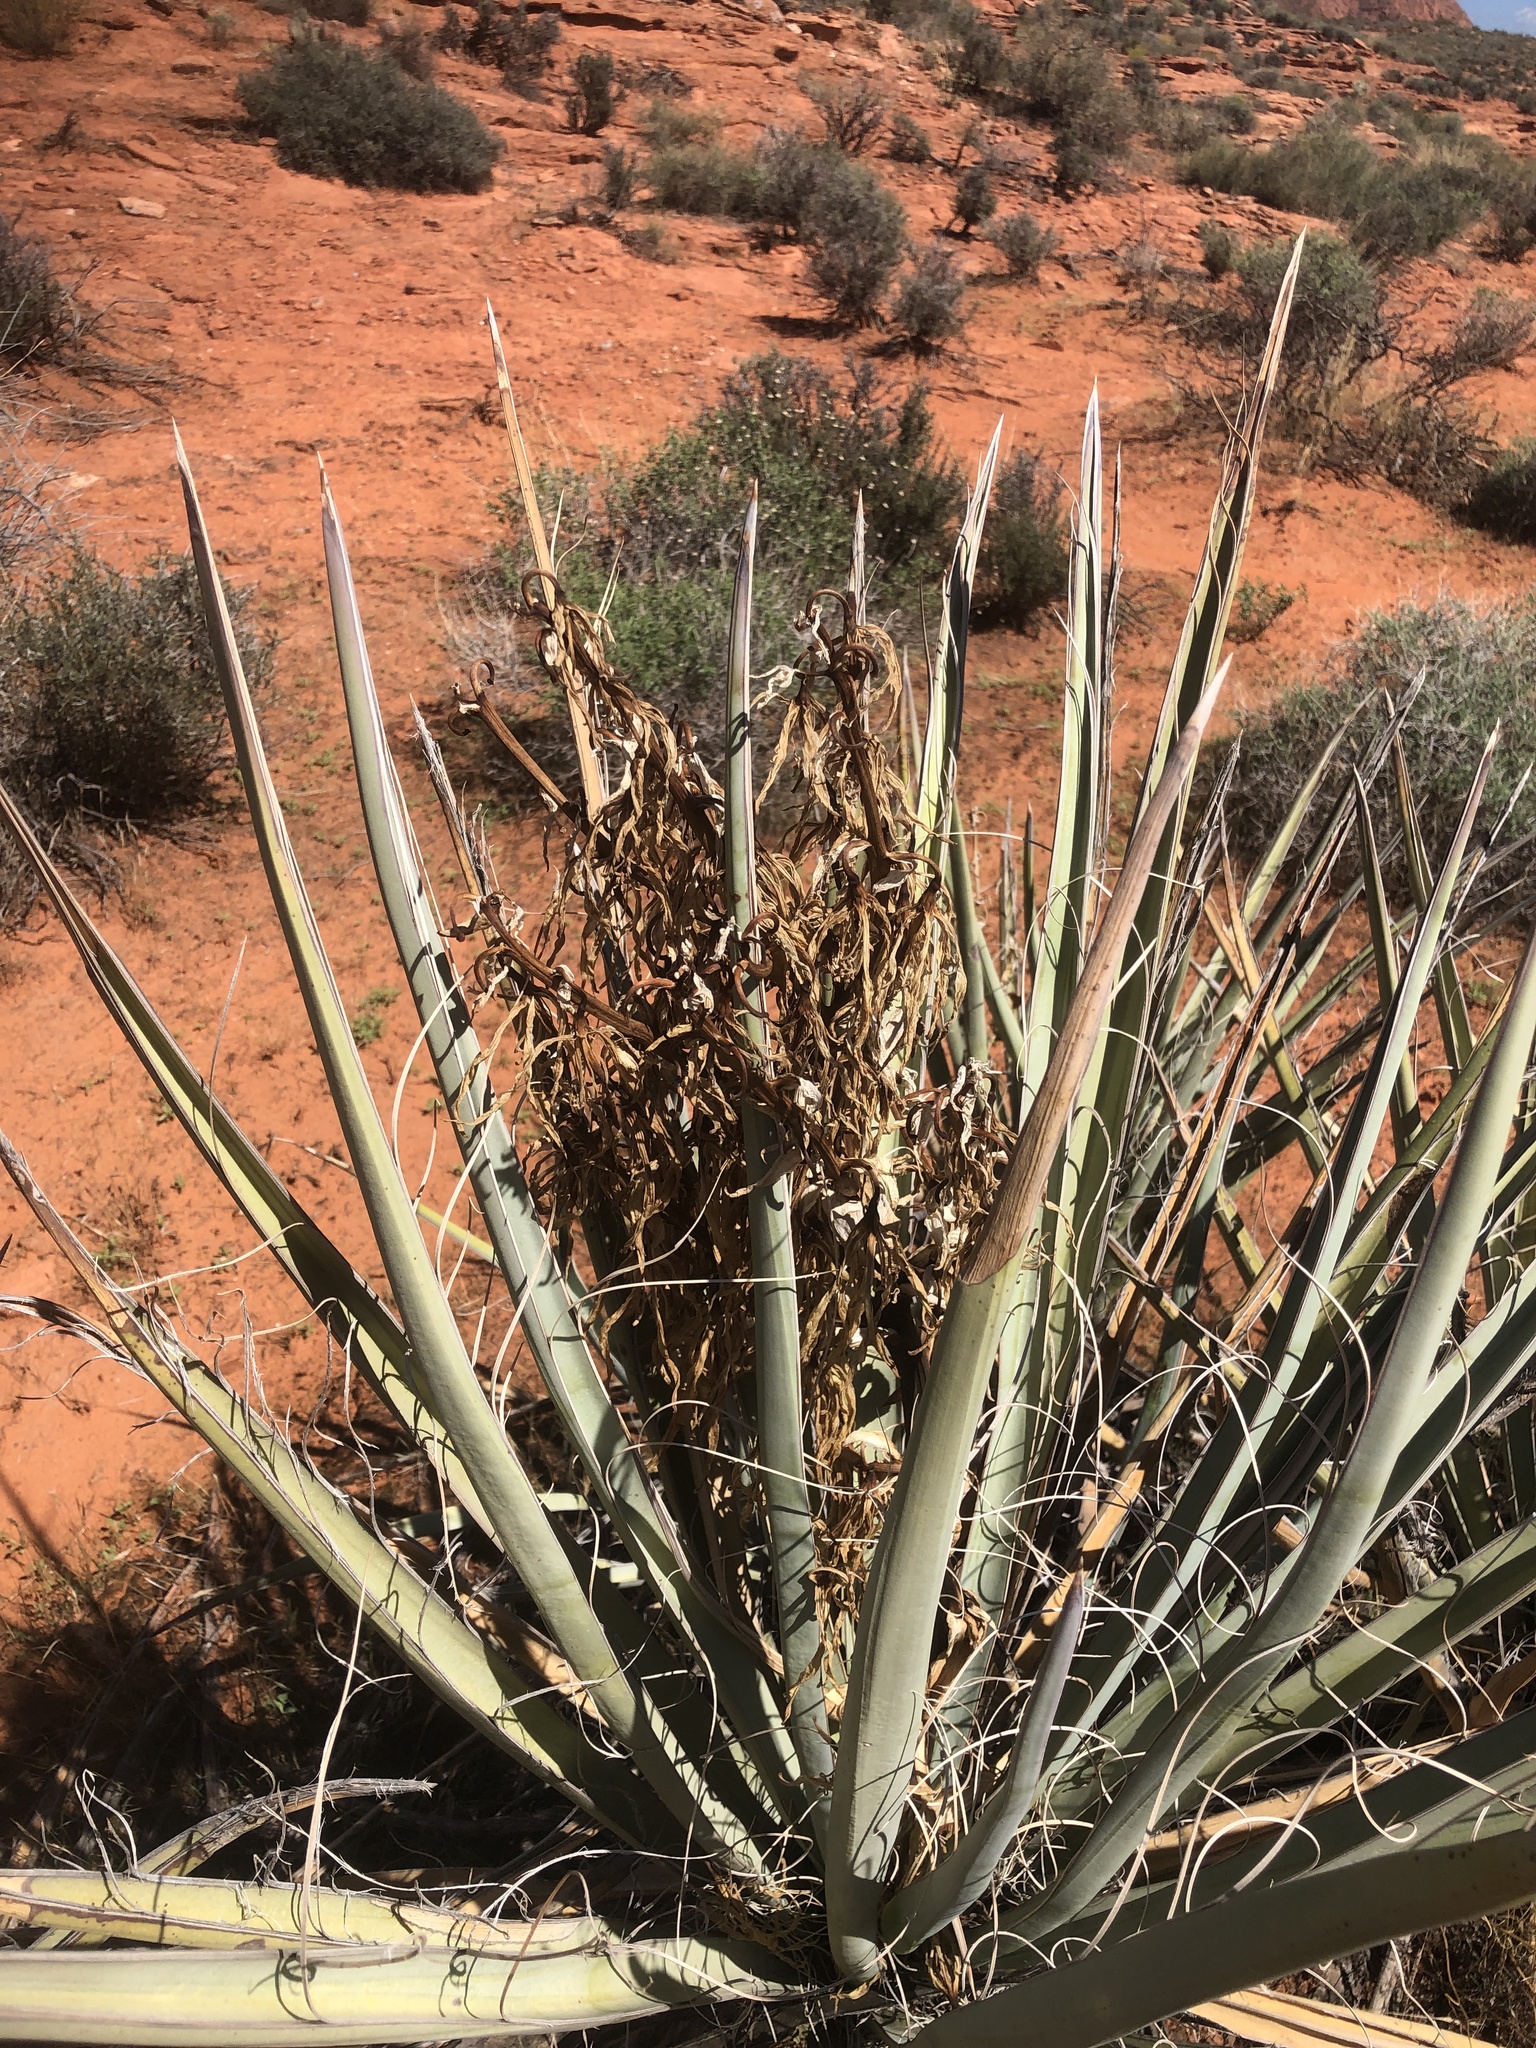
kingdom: Plantae
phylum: Tracheophyta
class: Liliopsida
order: Asparagales
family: Asparagaceae
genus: Yucca
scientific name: Yucca baccata
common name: Banana yucca
